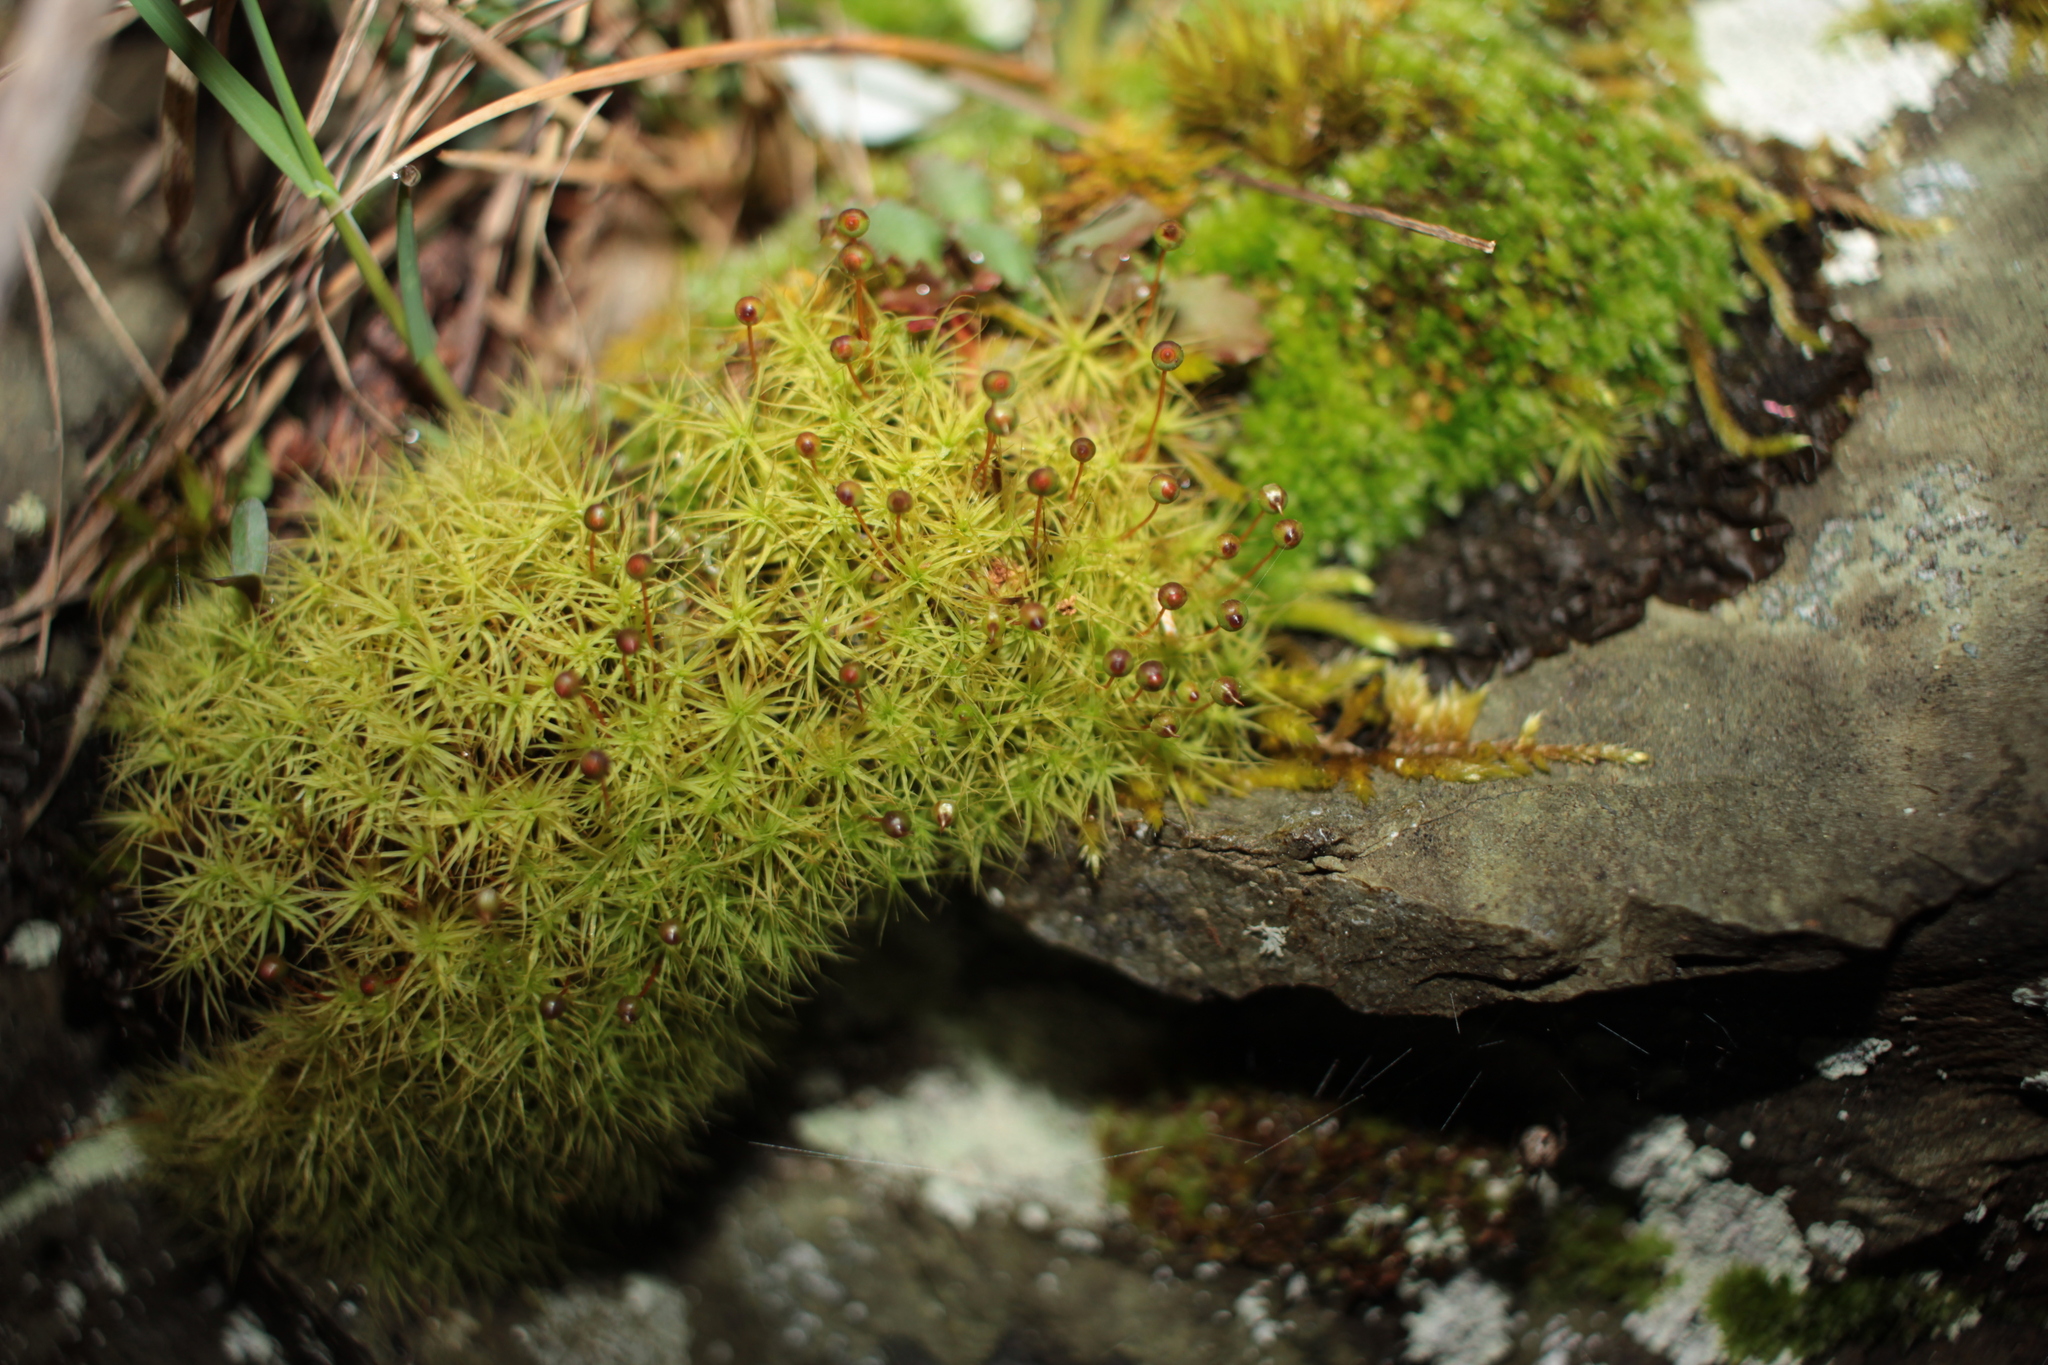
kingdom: Plantae
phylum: Bryophyta
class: Bryopsida
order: Bartramiales
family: Bartramiaceae
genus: Bartramia
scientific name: Bartramia ithyphylla
